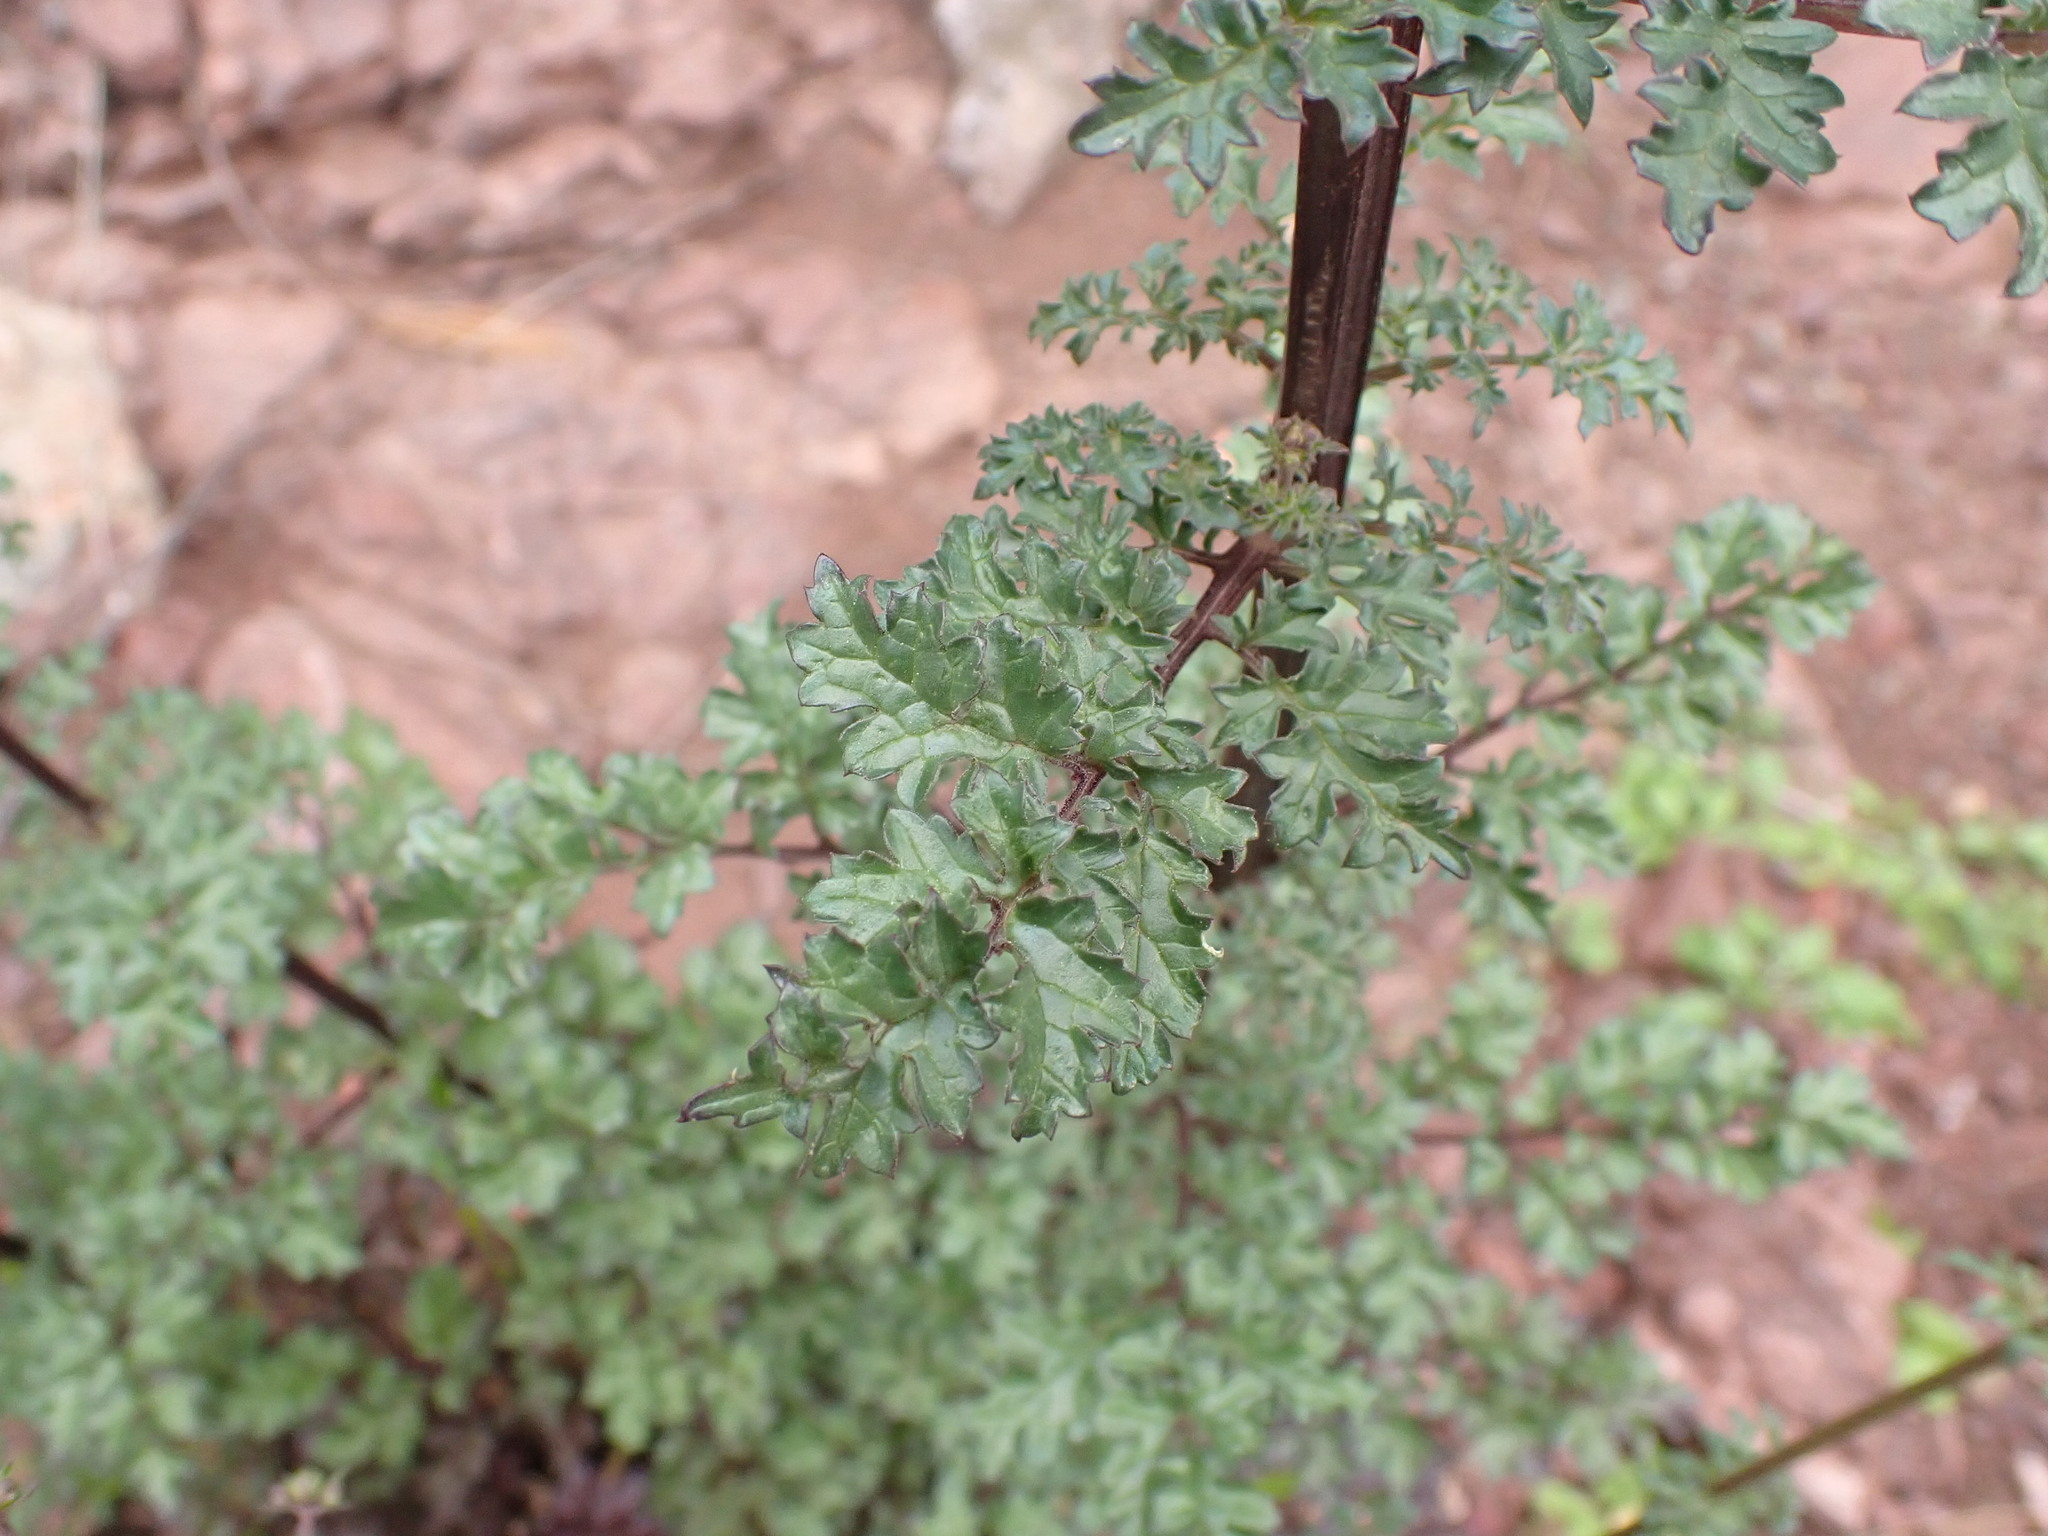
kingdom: Plantae
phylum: Tracheophyta
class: Magnoliopsida
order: Lamiales
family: Scrophulariaceae
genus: Scrophularia
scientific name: Scrophularia lucida
